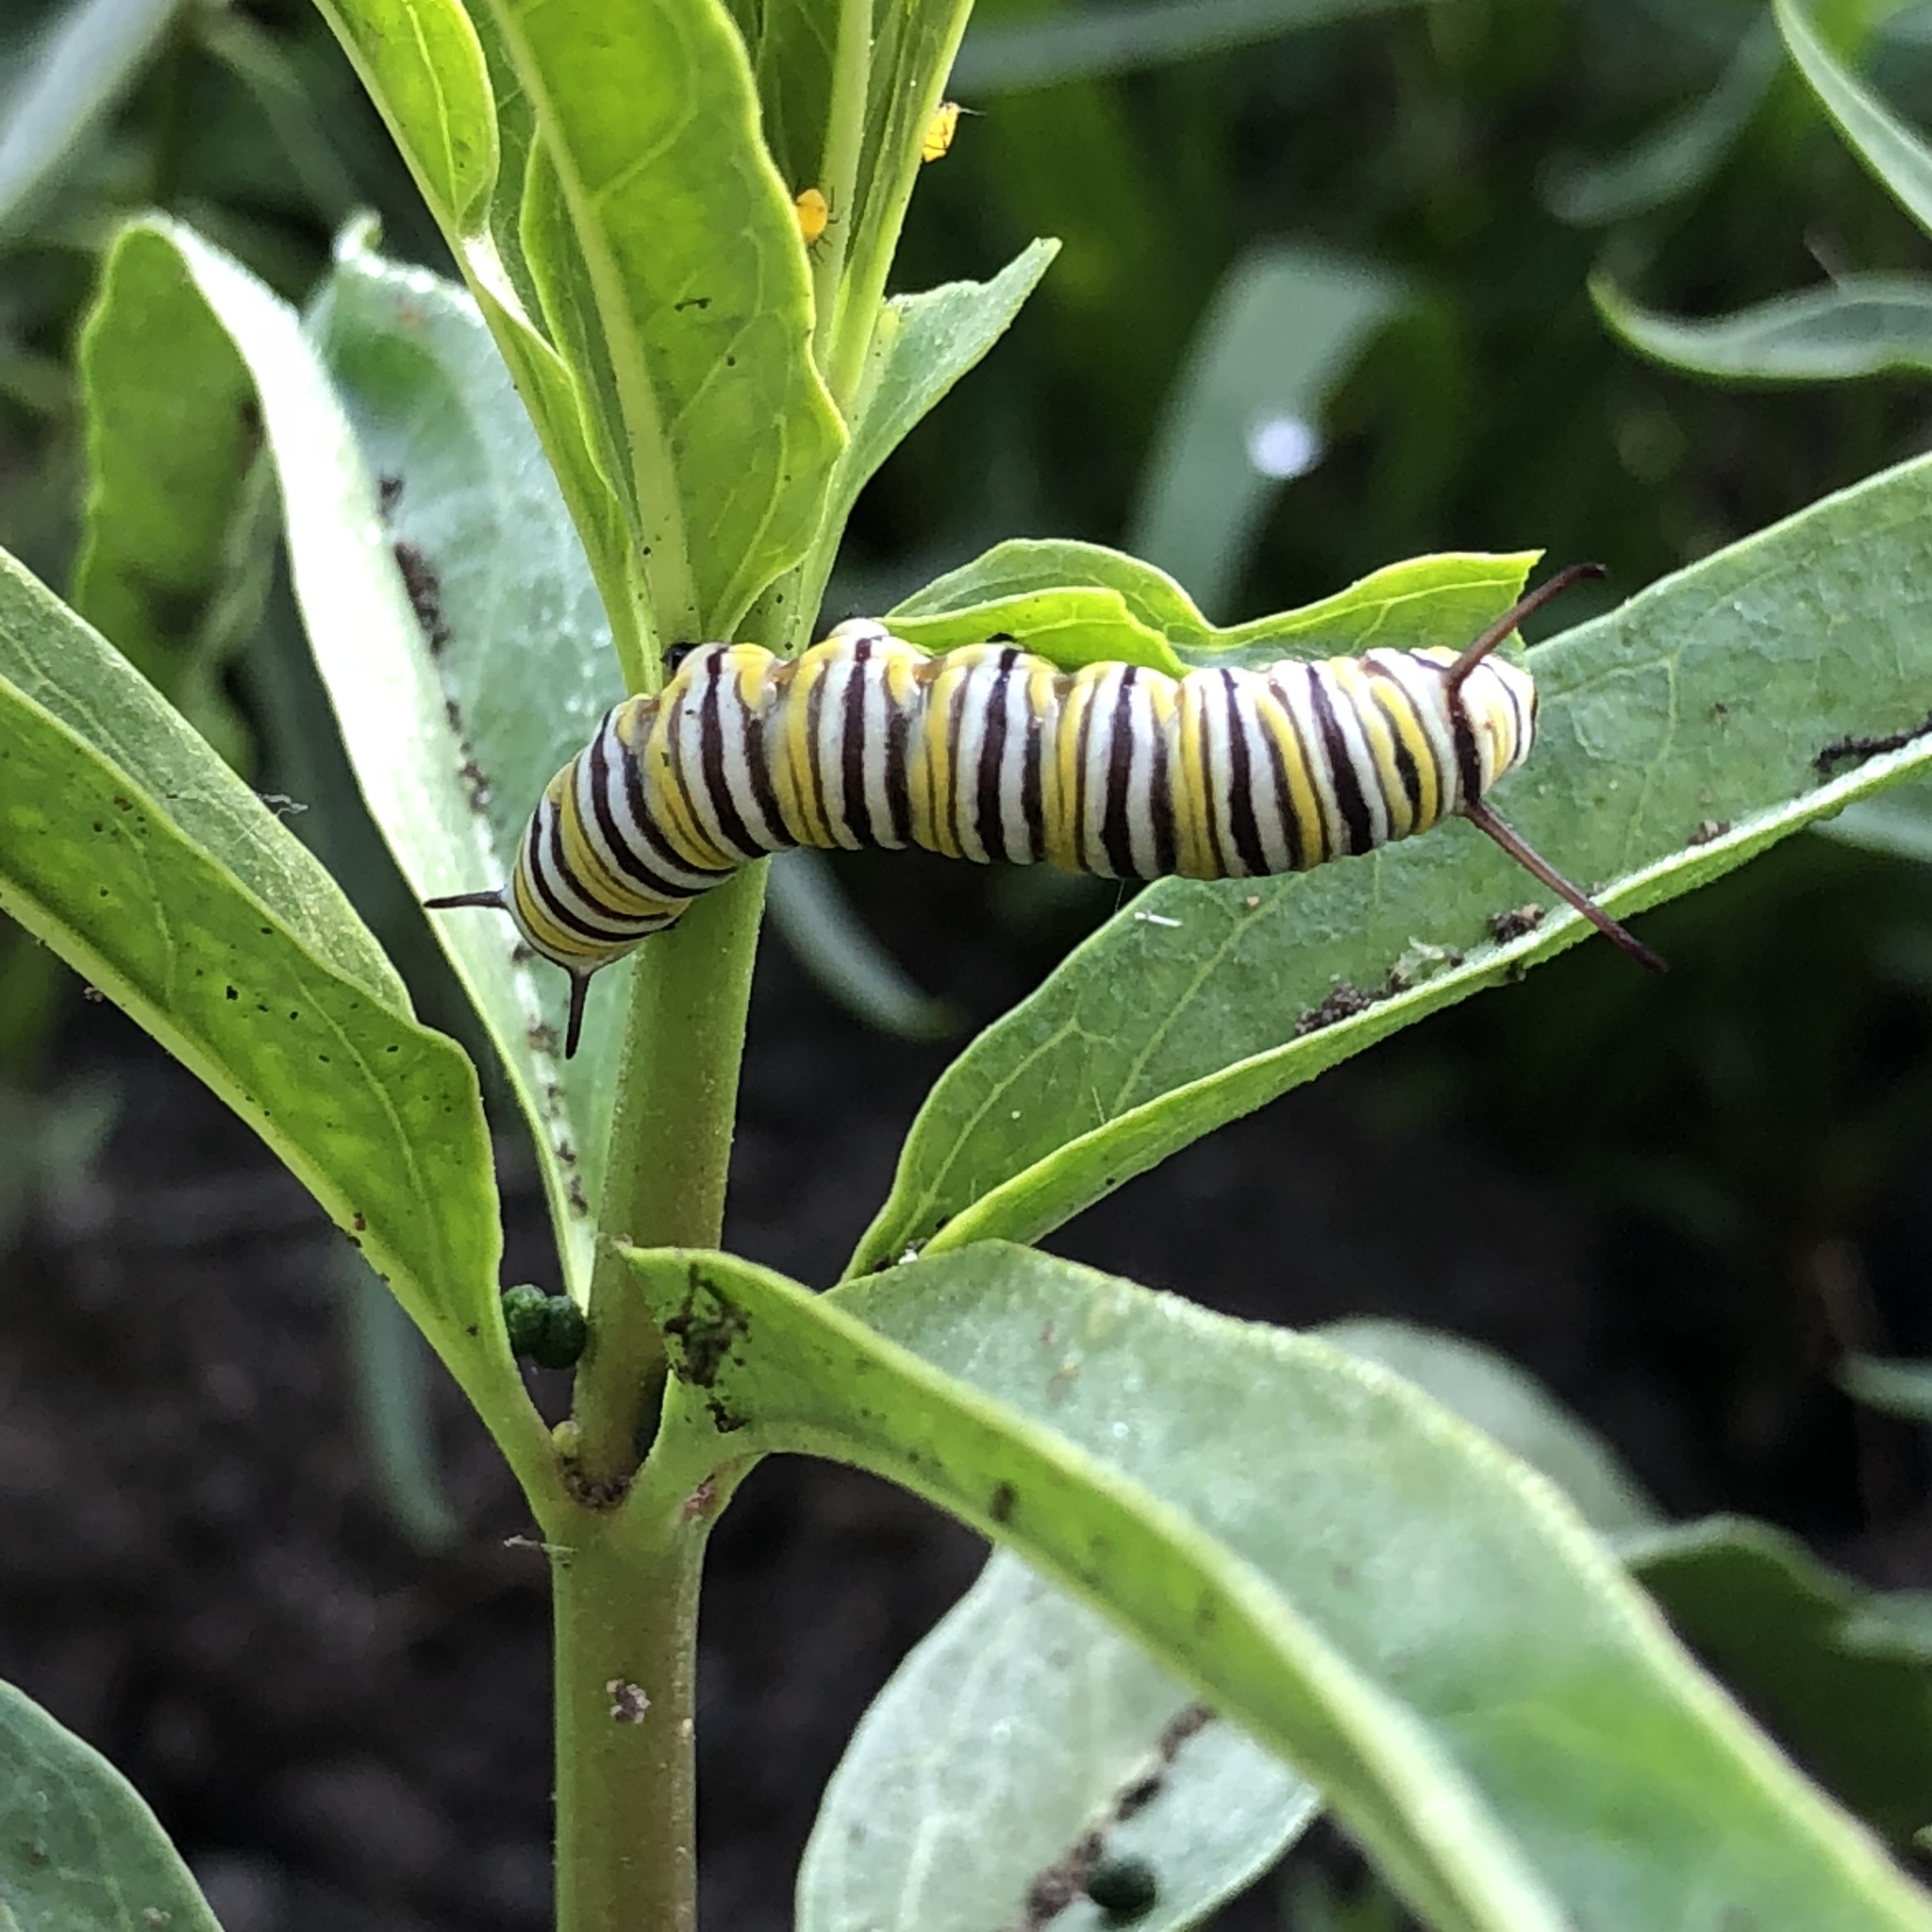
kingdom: Animalia
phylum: Arthropoda
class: Insecta
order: Lepidoptera
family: Nymphalidae
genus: Danaus
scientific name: Danaus plexippus
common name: Monarch
